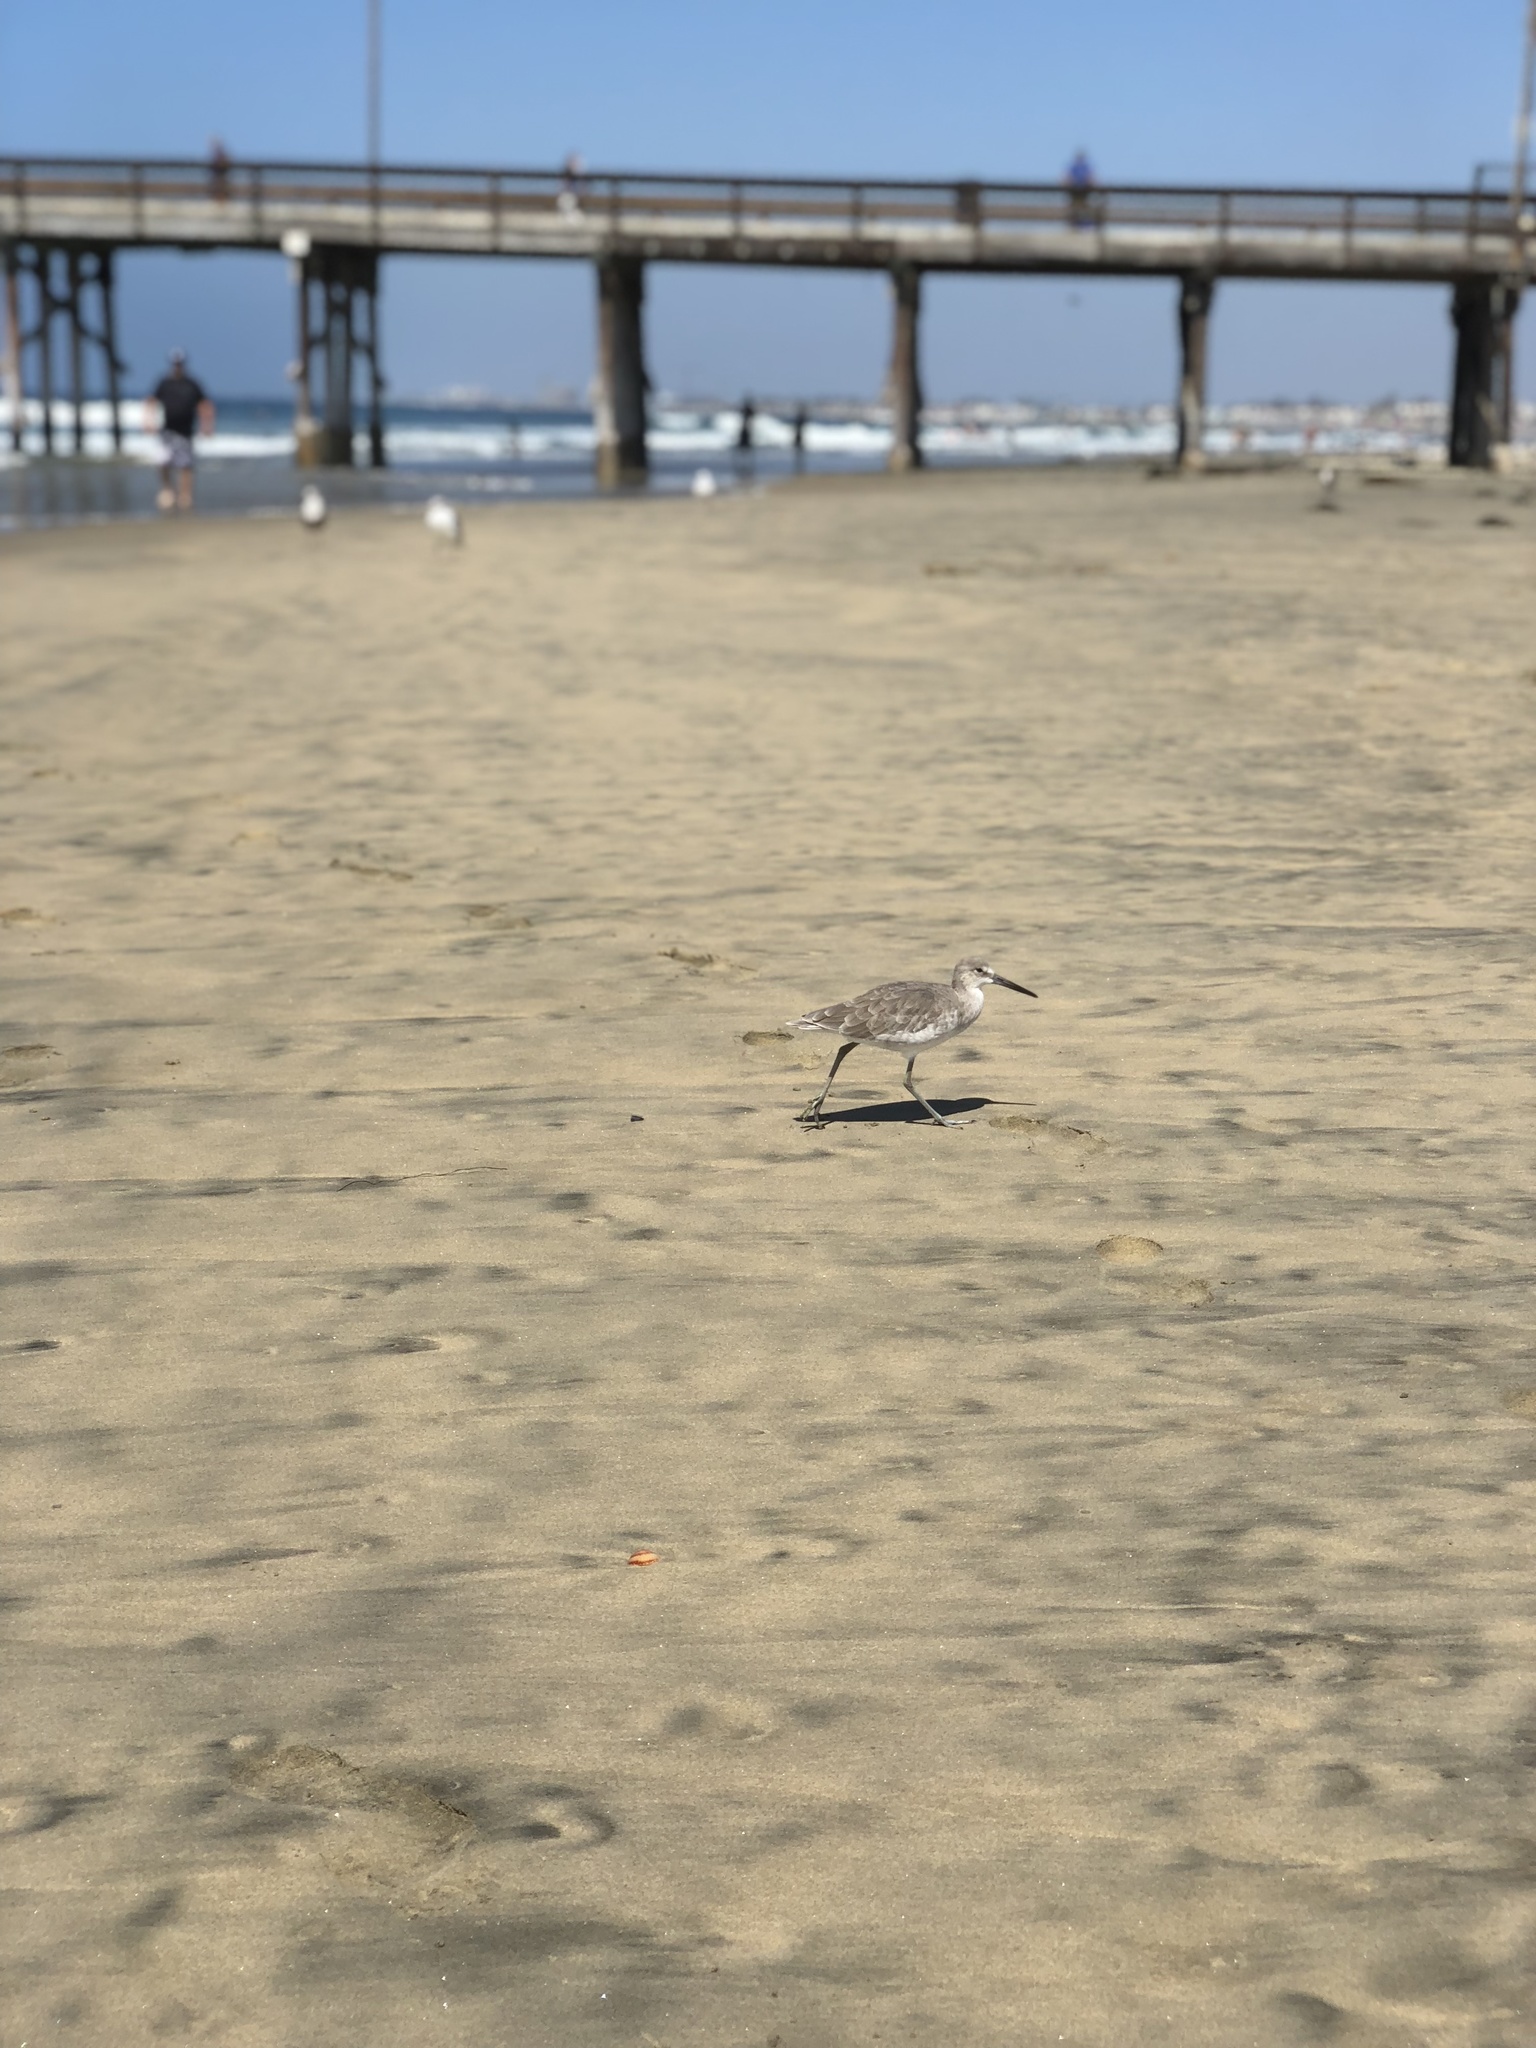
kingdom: Animalia
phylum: Chordata
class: Aves
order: Charadriiformes
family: Scolopacidae
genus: Tringa
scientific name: Tringa semipalmata
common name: Willet
